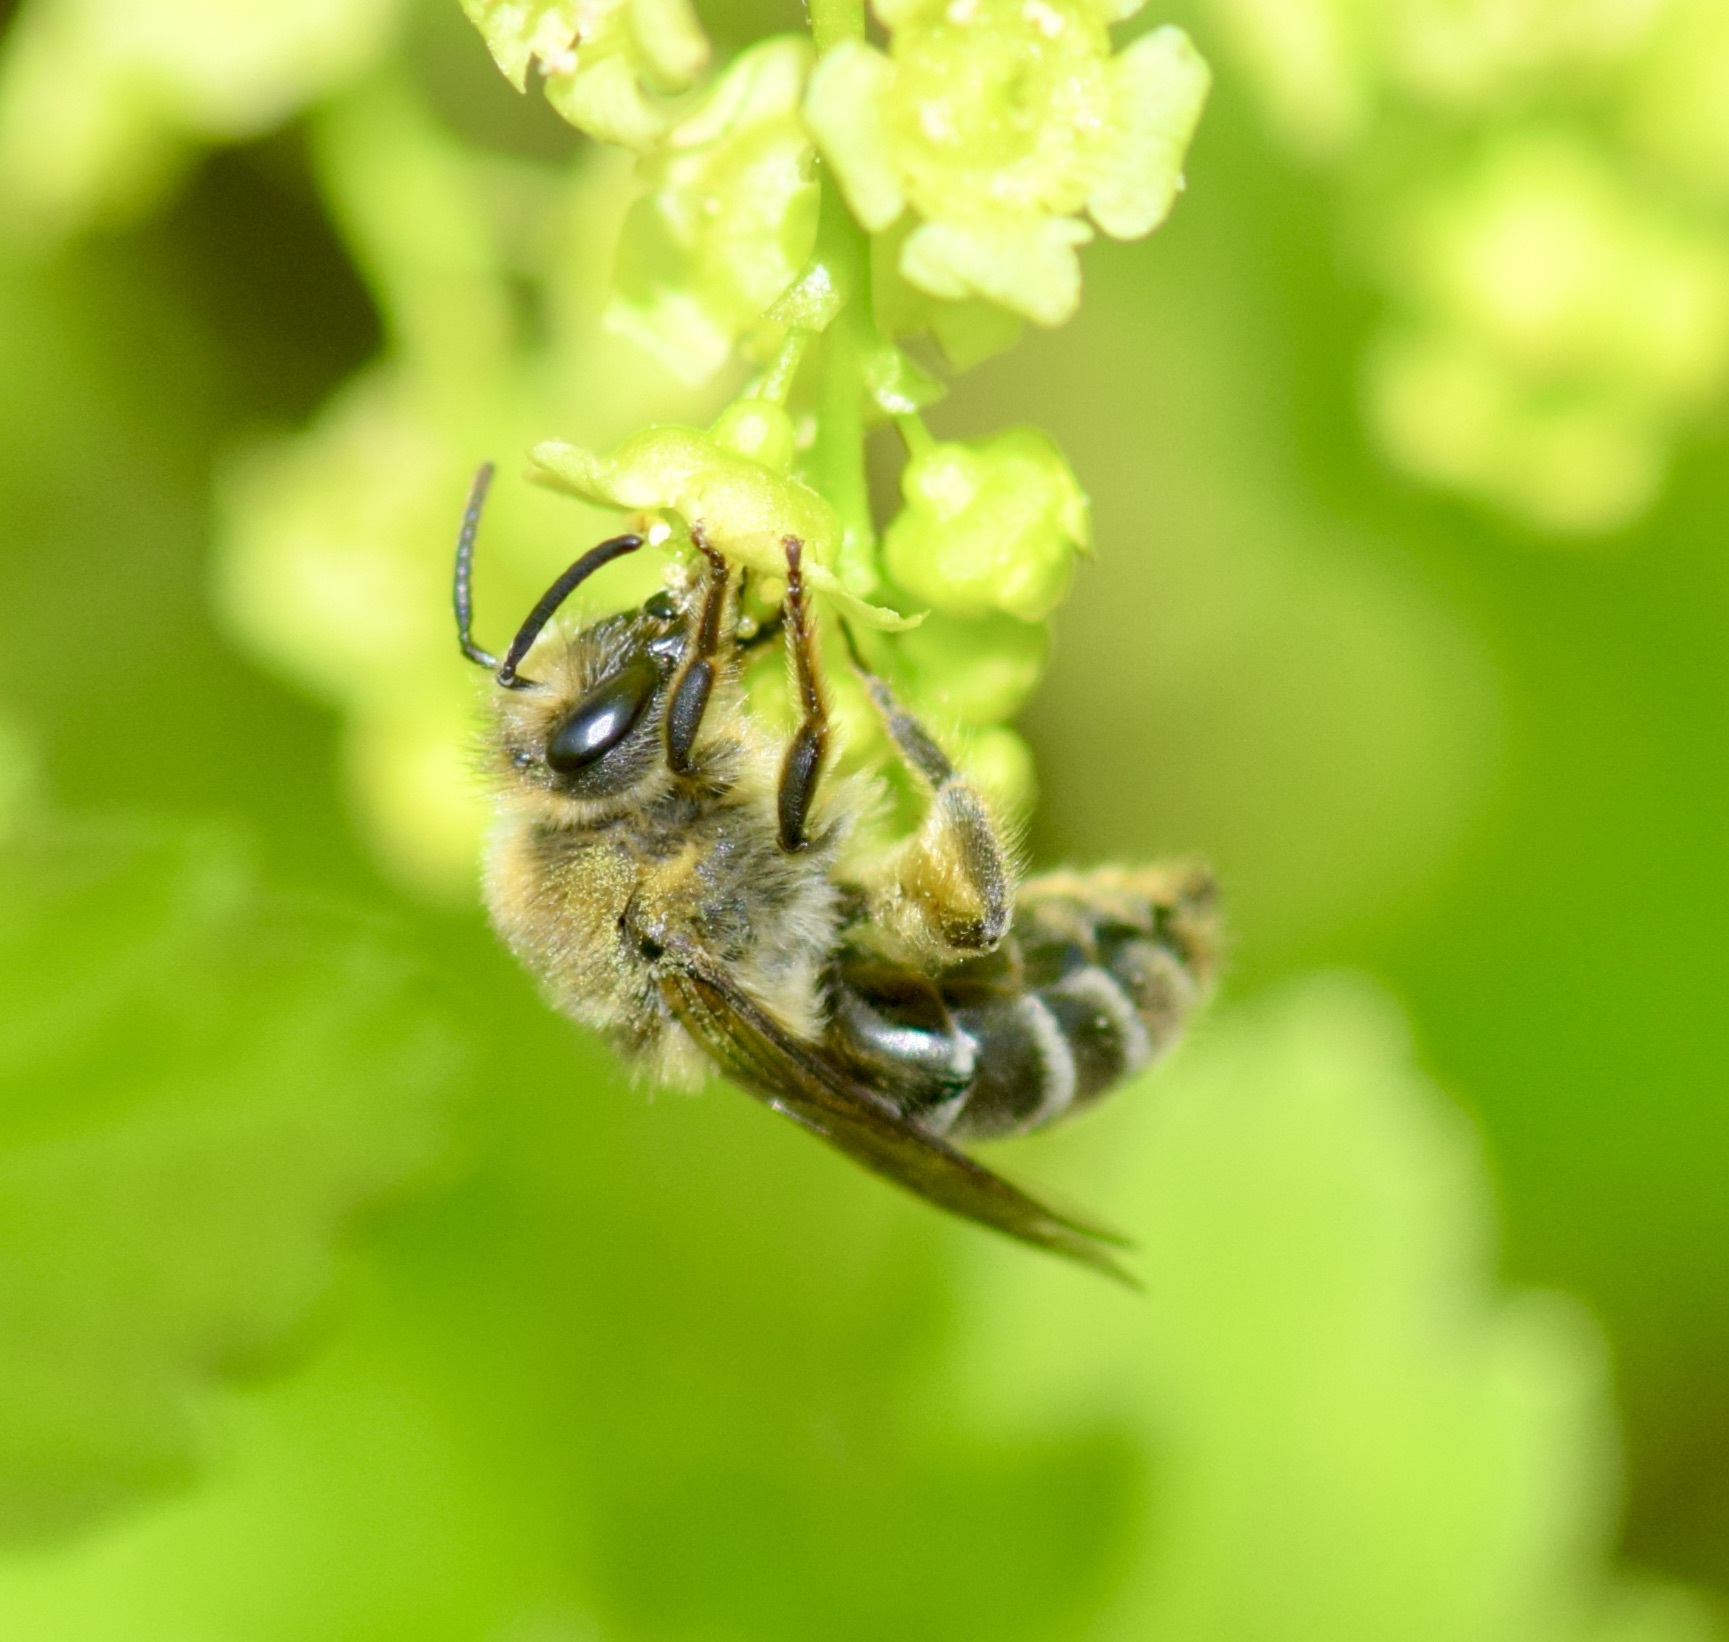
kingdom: Animalia
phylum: Arthropoda
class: Insecta
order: Hymenoptera
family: Colletidae
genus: Colletes
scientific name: Colletes inaequalis
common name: Unequal cellophane bee
